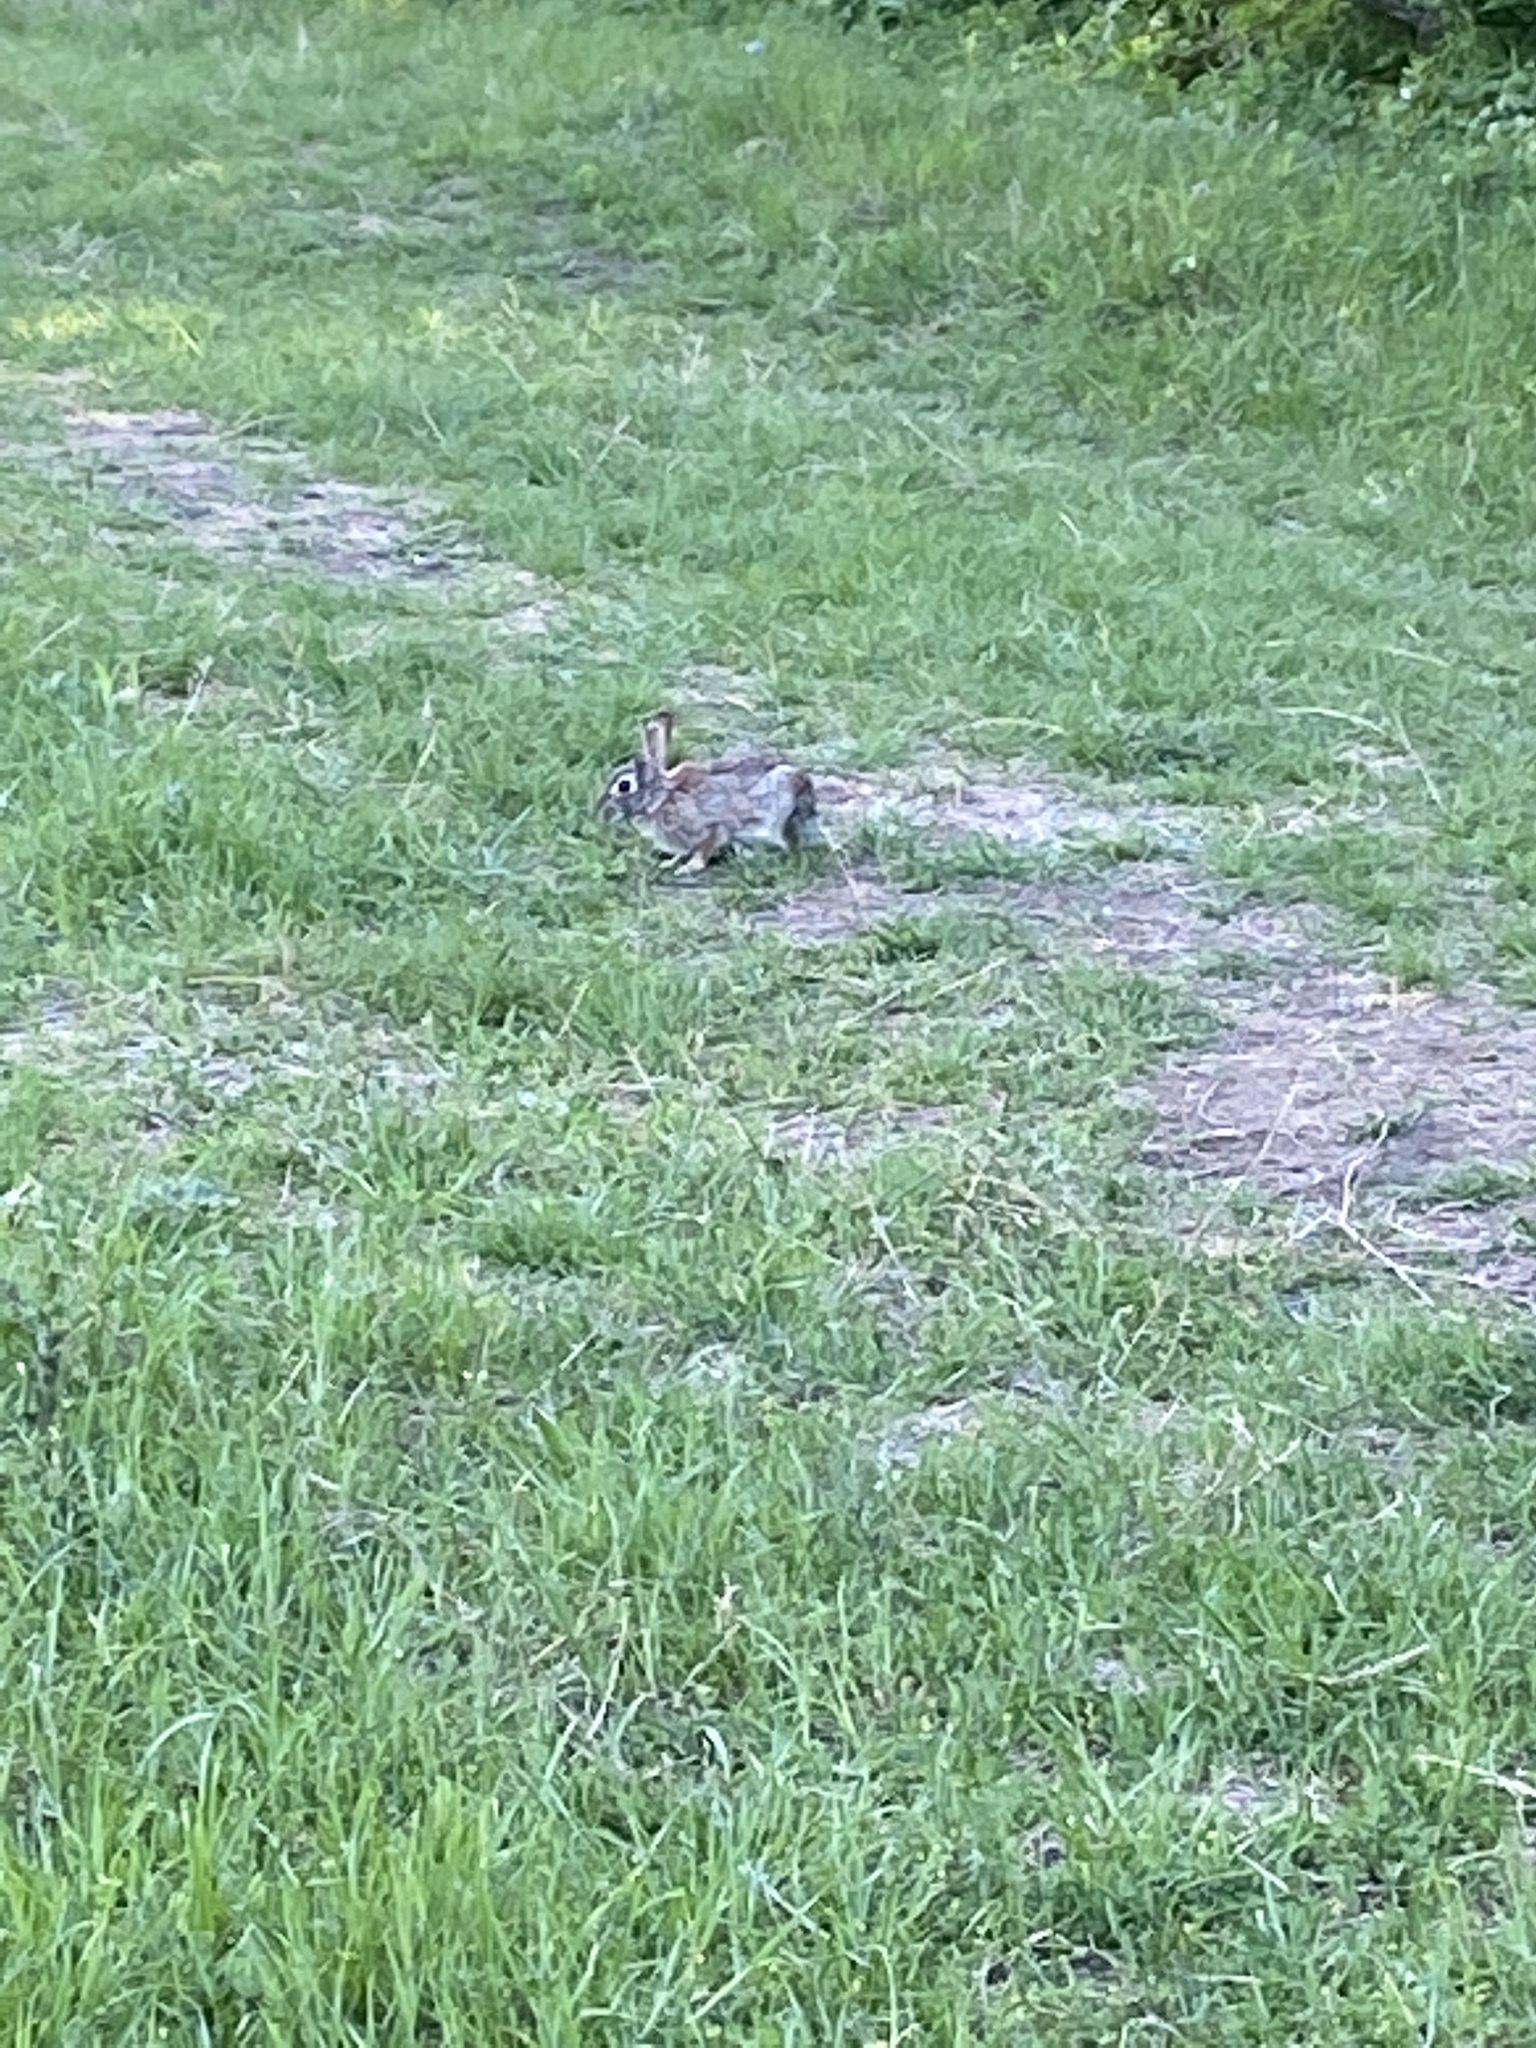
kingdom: Animalia
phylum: Chordata
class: Mammalia
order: Lagomorpha
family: Leporidae
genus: Sylvilagus
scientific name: Sylvilagus floridanus
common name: Eastern cottontail
